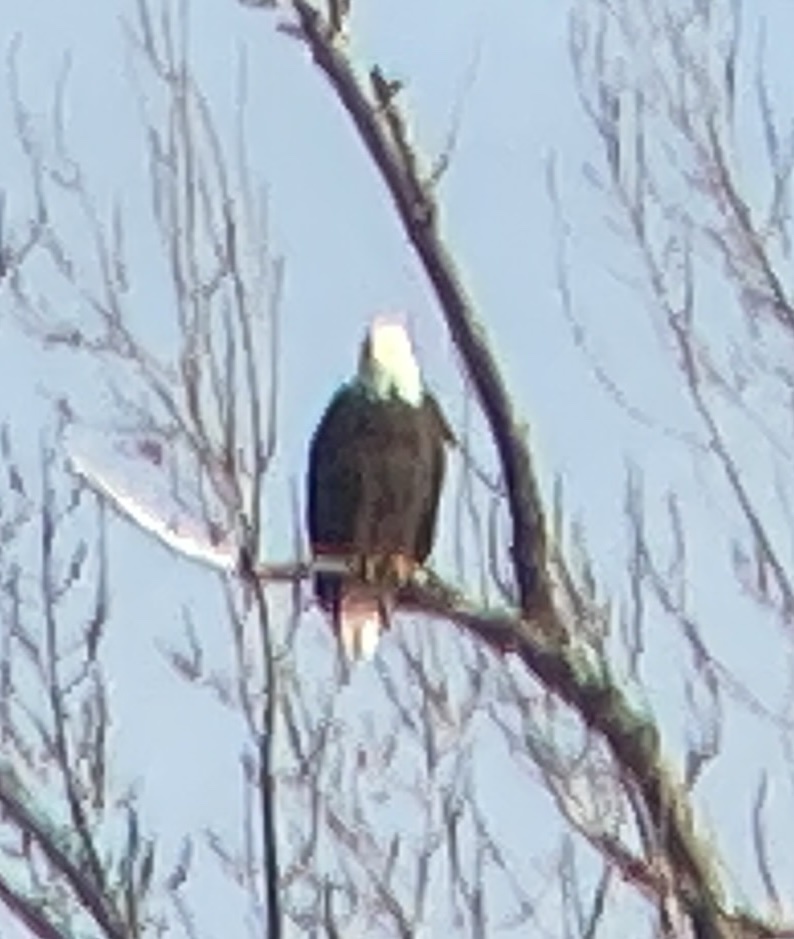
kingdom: Animalia
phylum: Chordata
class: Aves
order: Accipitriformes
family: Accipitridae
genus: Haliaeetus
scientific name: Haliaeetus leucocephalus
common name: Bald eagle
